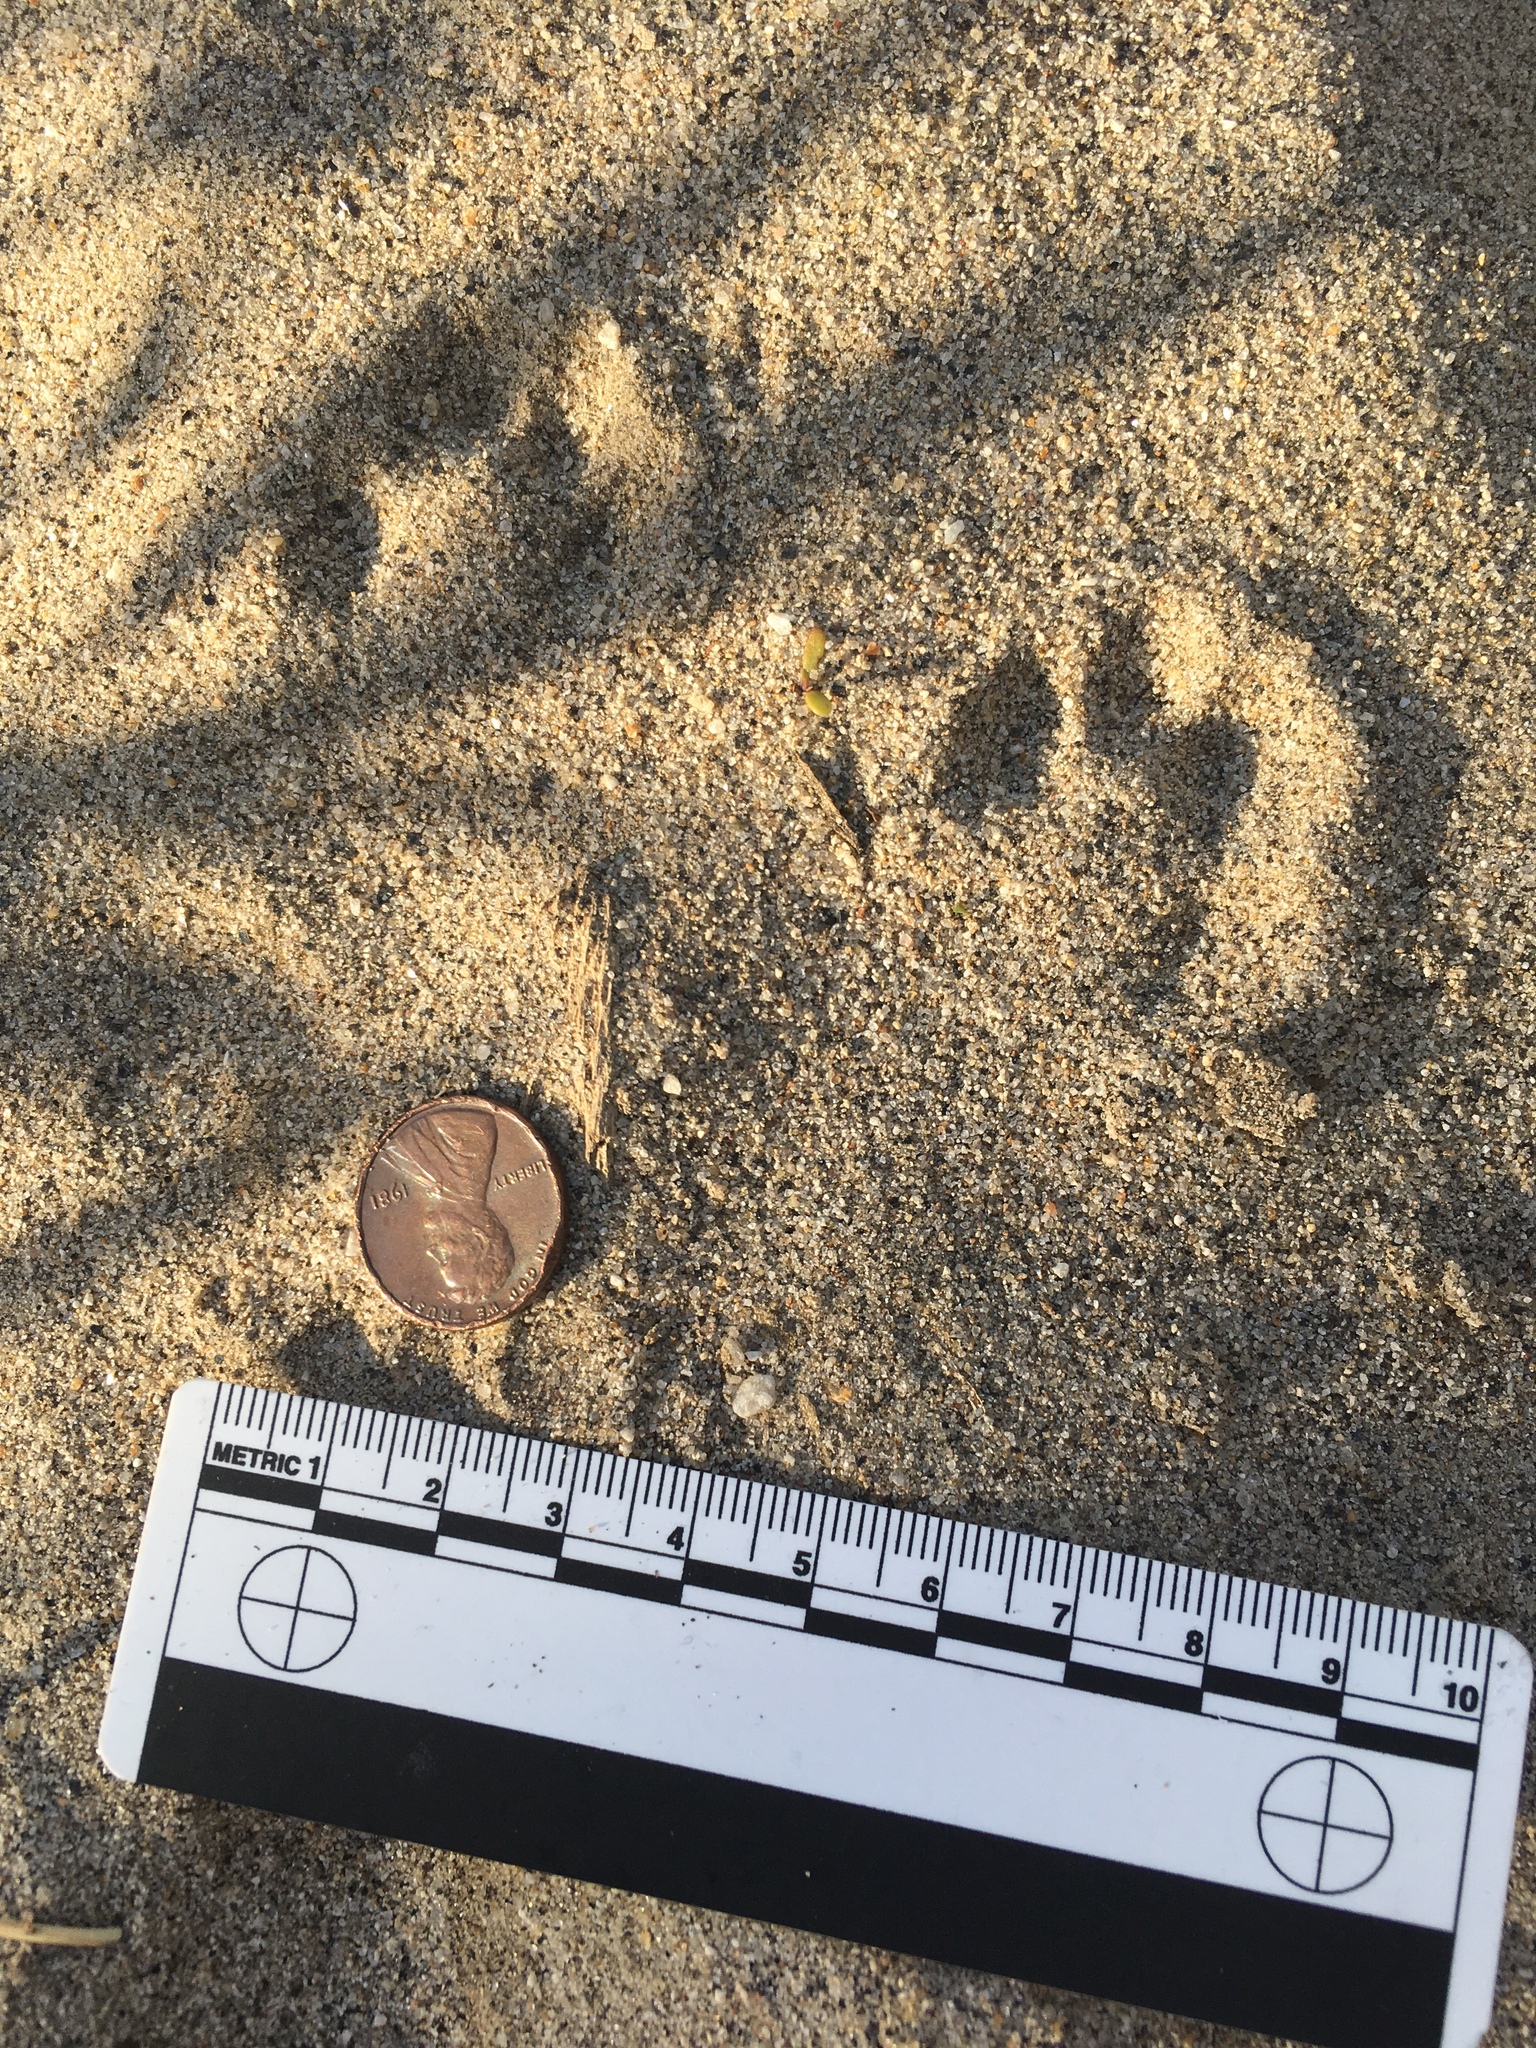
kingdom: Animalia
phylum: Chordata
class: Mammalia
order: Lagomorpha
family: Leporidae
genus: Lepus
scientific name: Lepus californicus
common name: Black-tailed jackrabbit
